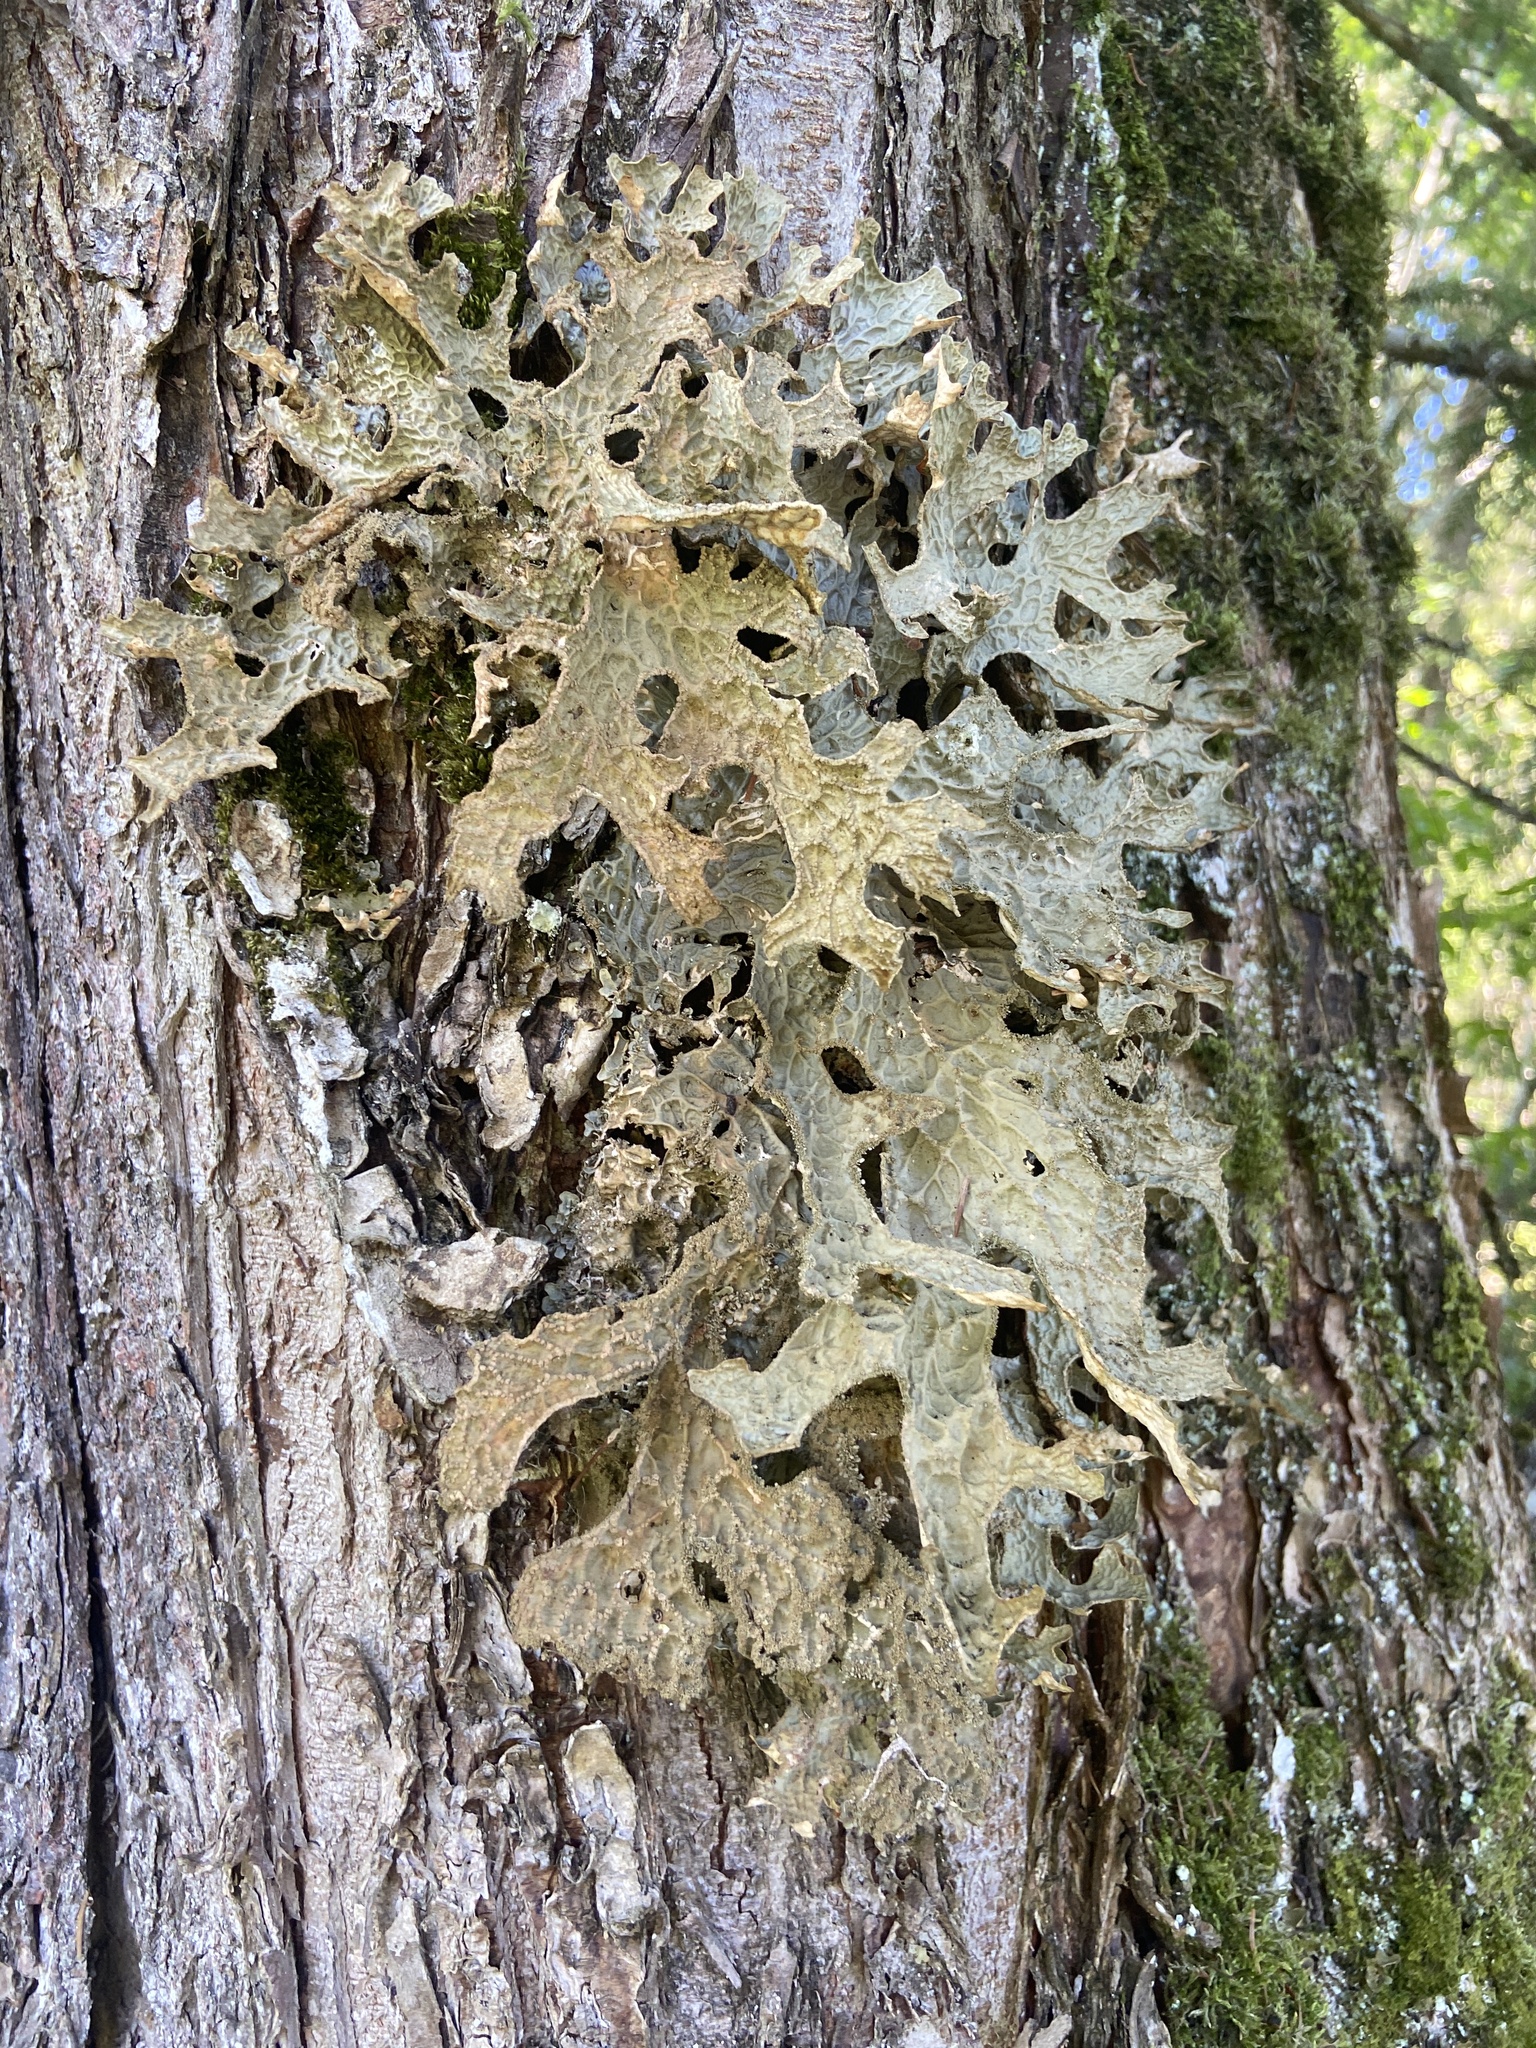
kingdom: Fungi
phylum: Ascomycota
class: Lecanoromycetes
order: Peltigerales
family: Lobariaceae
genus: Lobaria
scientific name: Lobaria pulmonaria
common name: Lungwort
